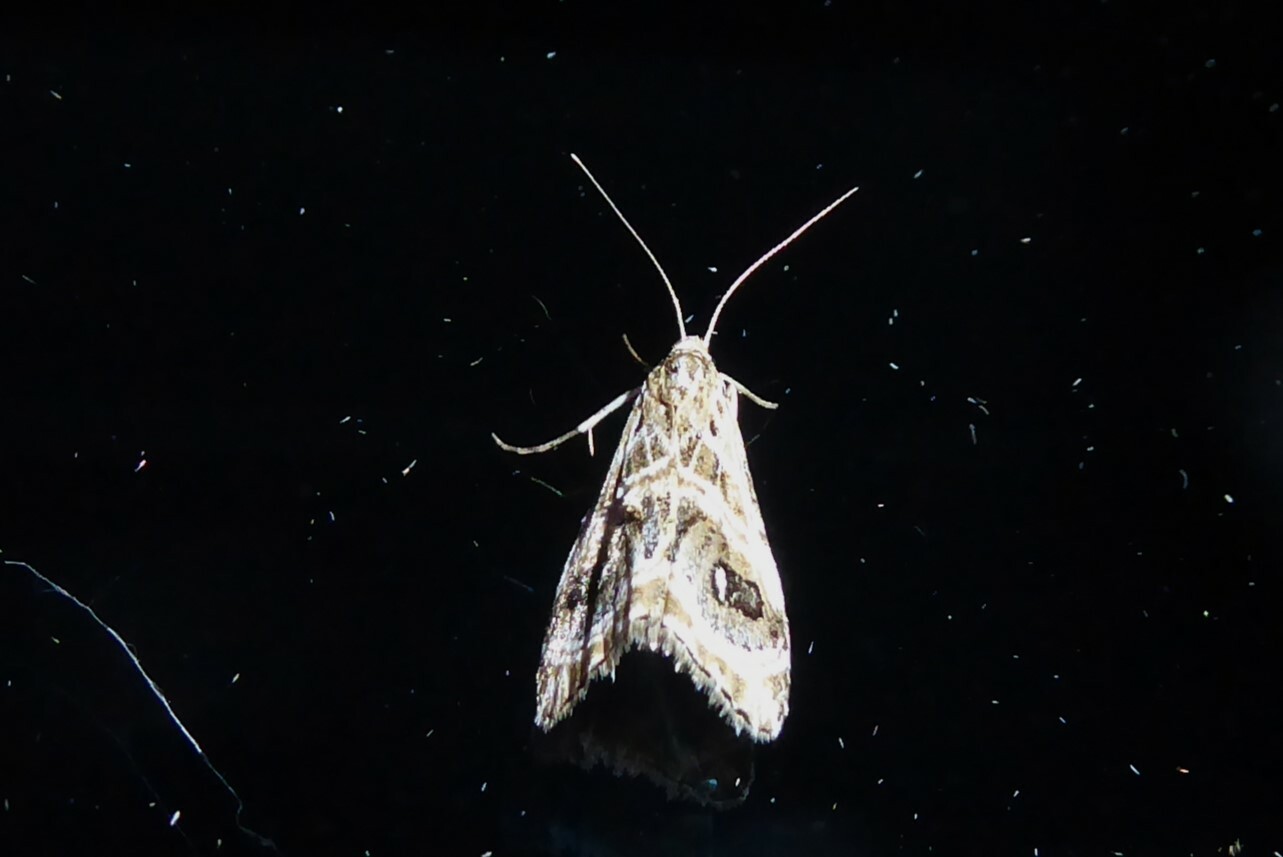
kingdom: Animalia
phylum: Arthropoda
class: Insecta
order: Lepidoptera
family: Crambidae
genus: Gadira
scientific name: Gadira acerella
